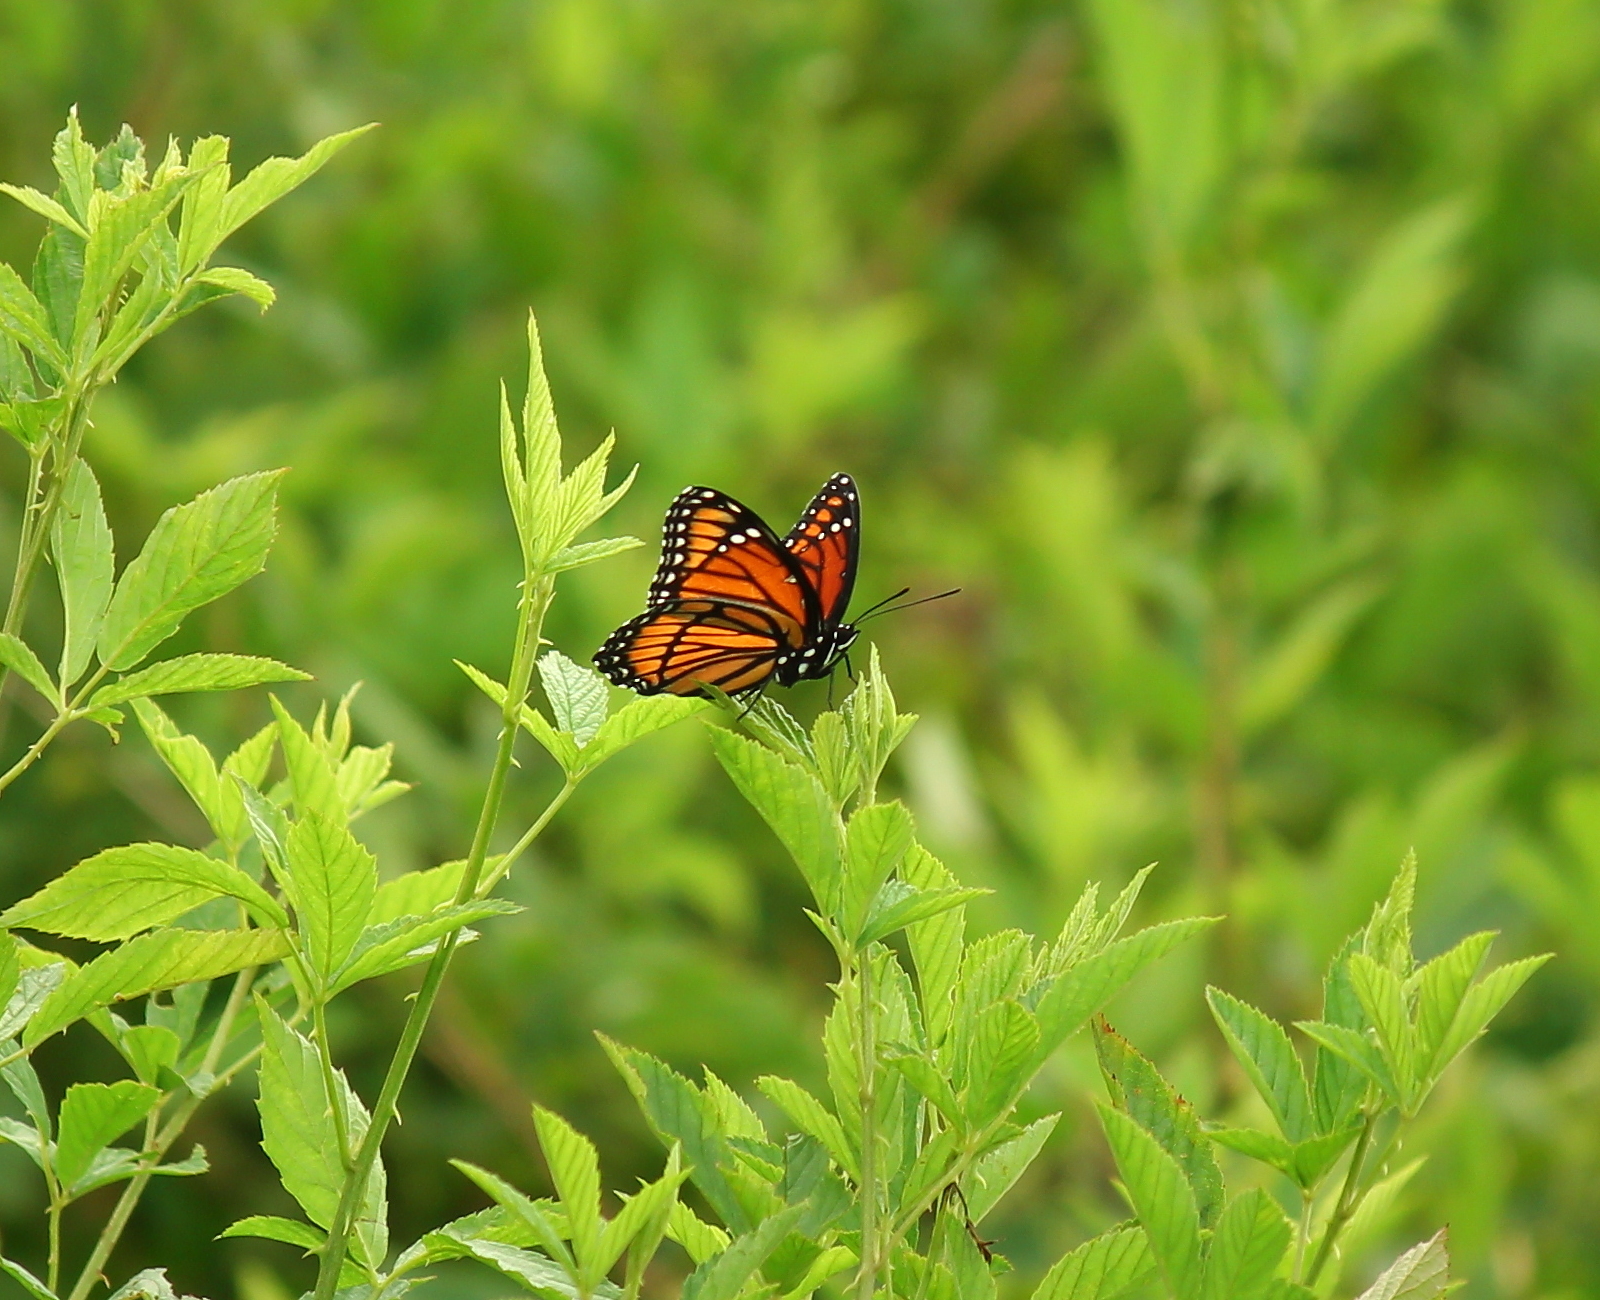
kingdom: Animalia
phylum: Arthropoda
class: Insecta
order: Lepidoptera
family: Nymphalidae
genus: Limenitis
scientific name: Limenitis archippus
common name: Viceroy
